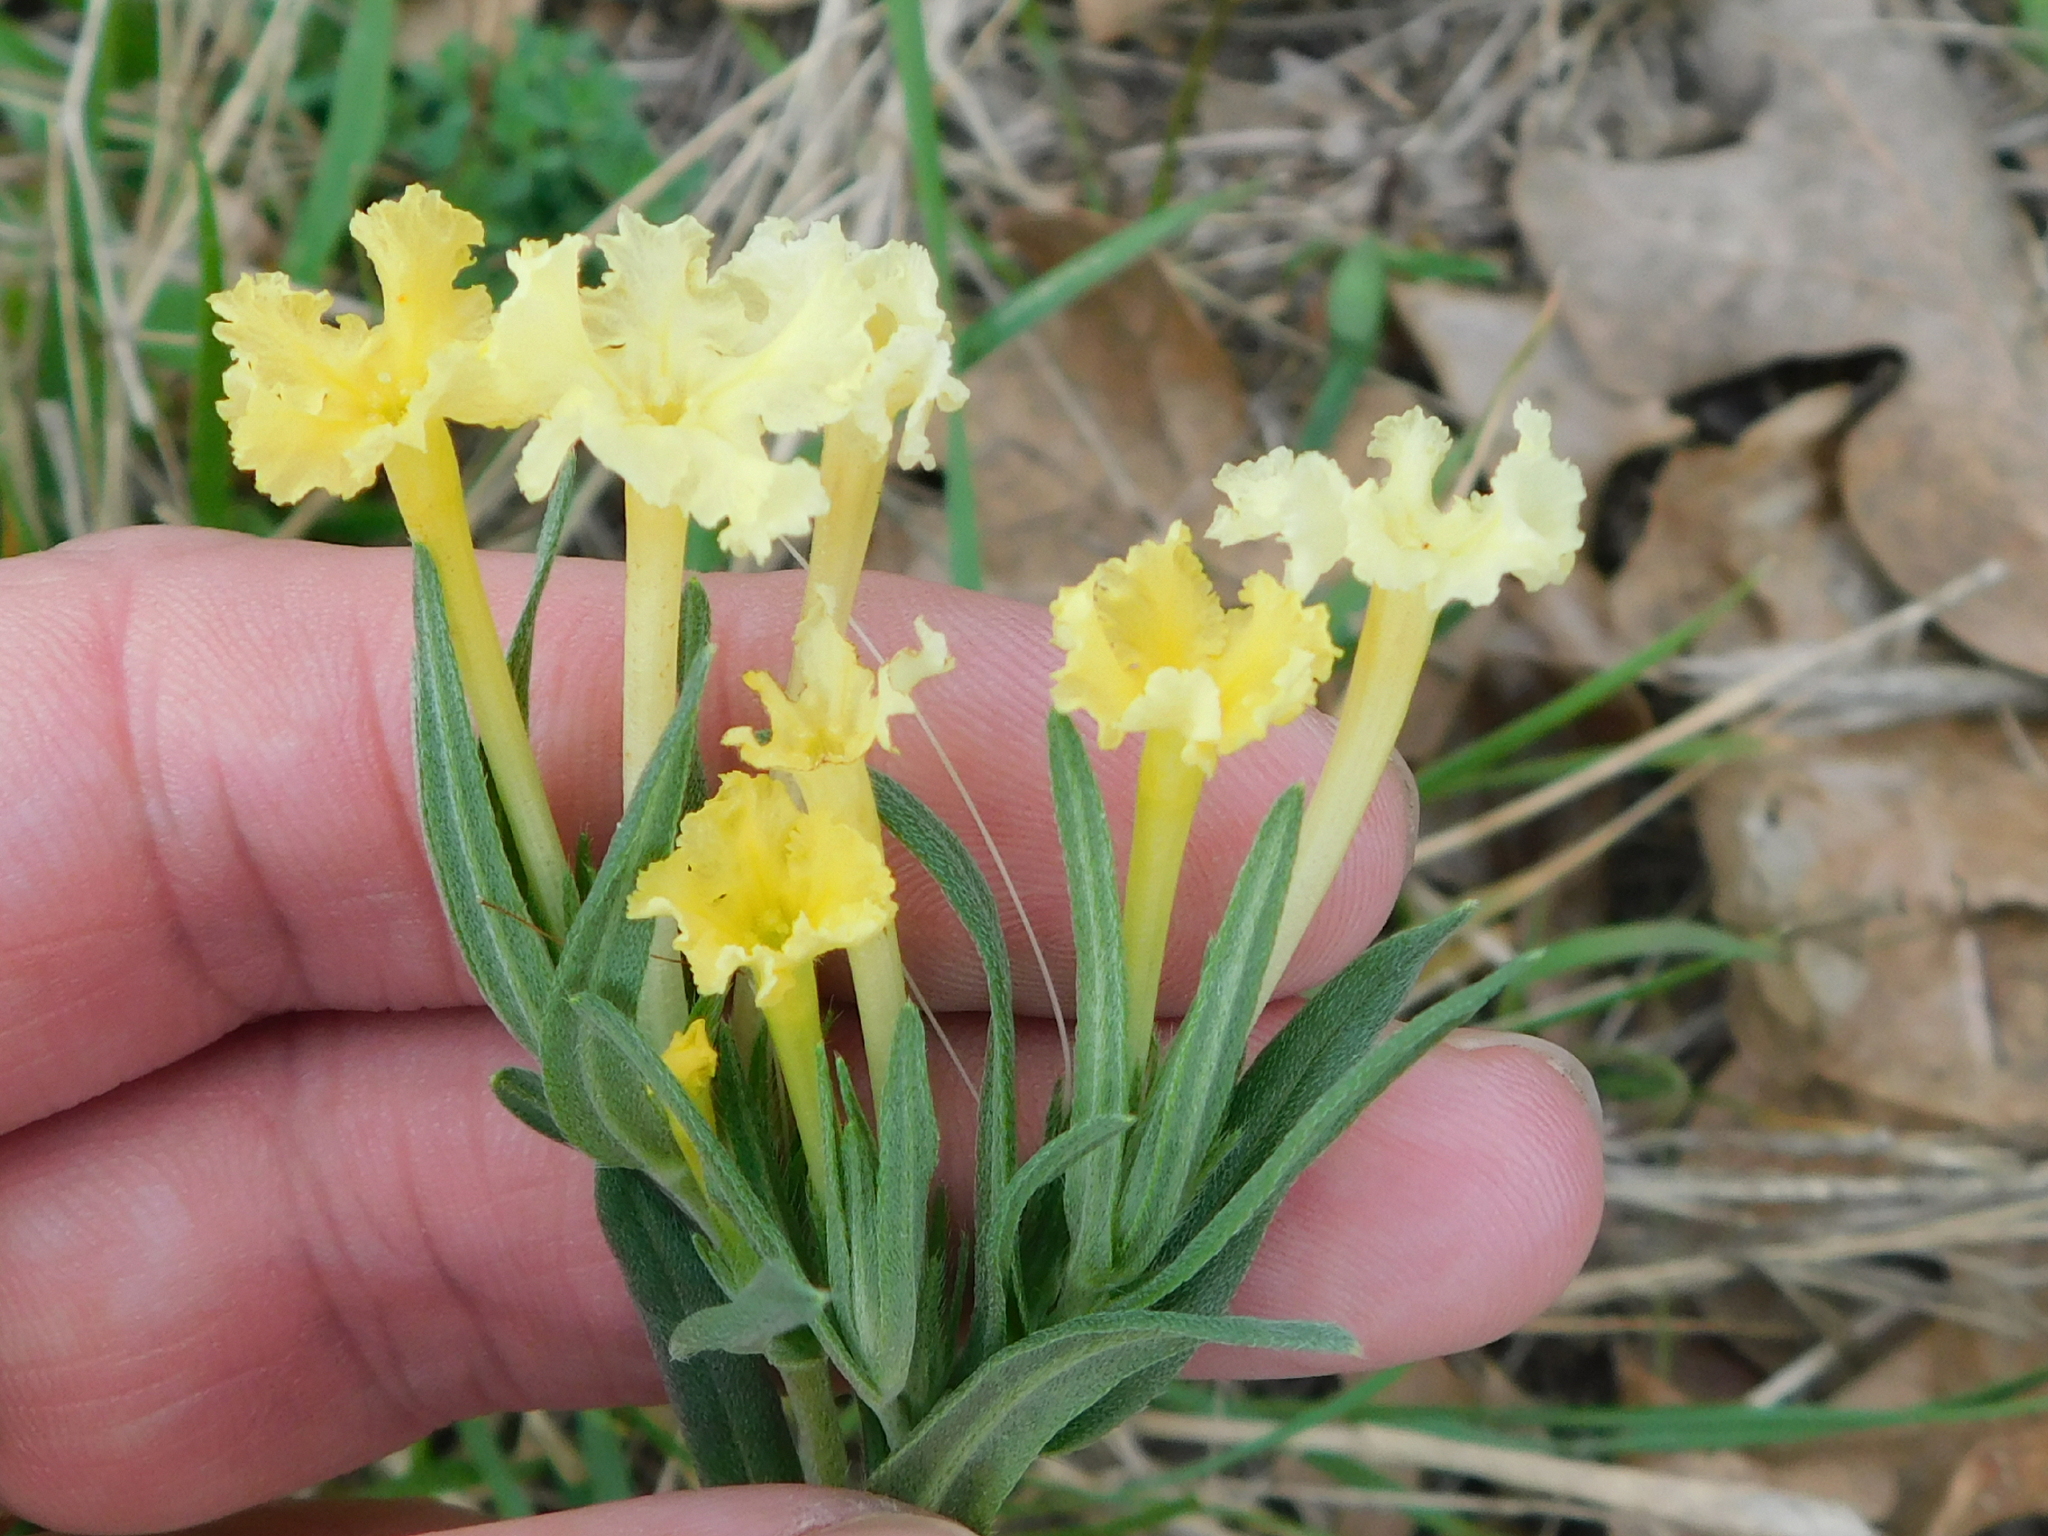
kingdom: Plantae
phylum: Tracheophyta
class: Magnoliopsida
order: Boraginales
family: Boraginaceae
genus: Lithospermum
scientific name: Lithospermum incisum
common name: Fringed gromwell
